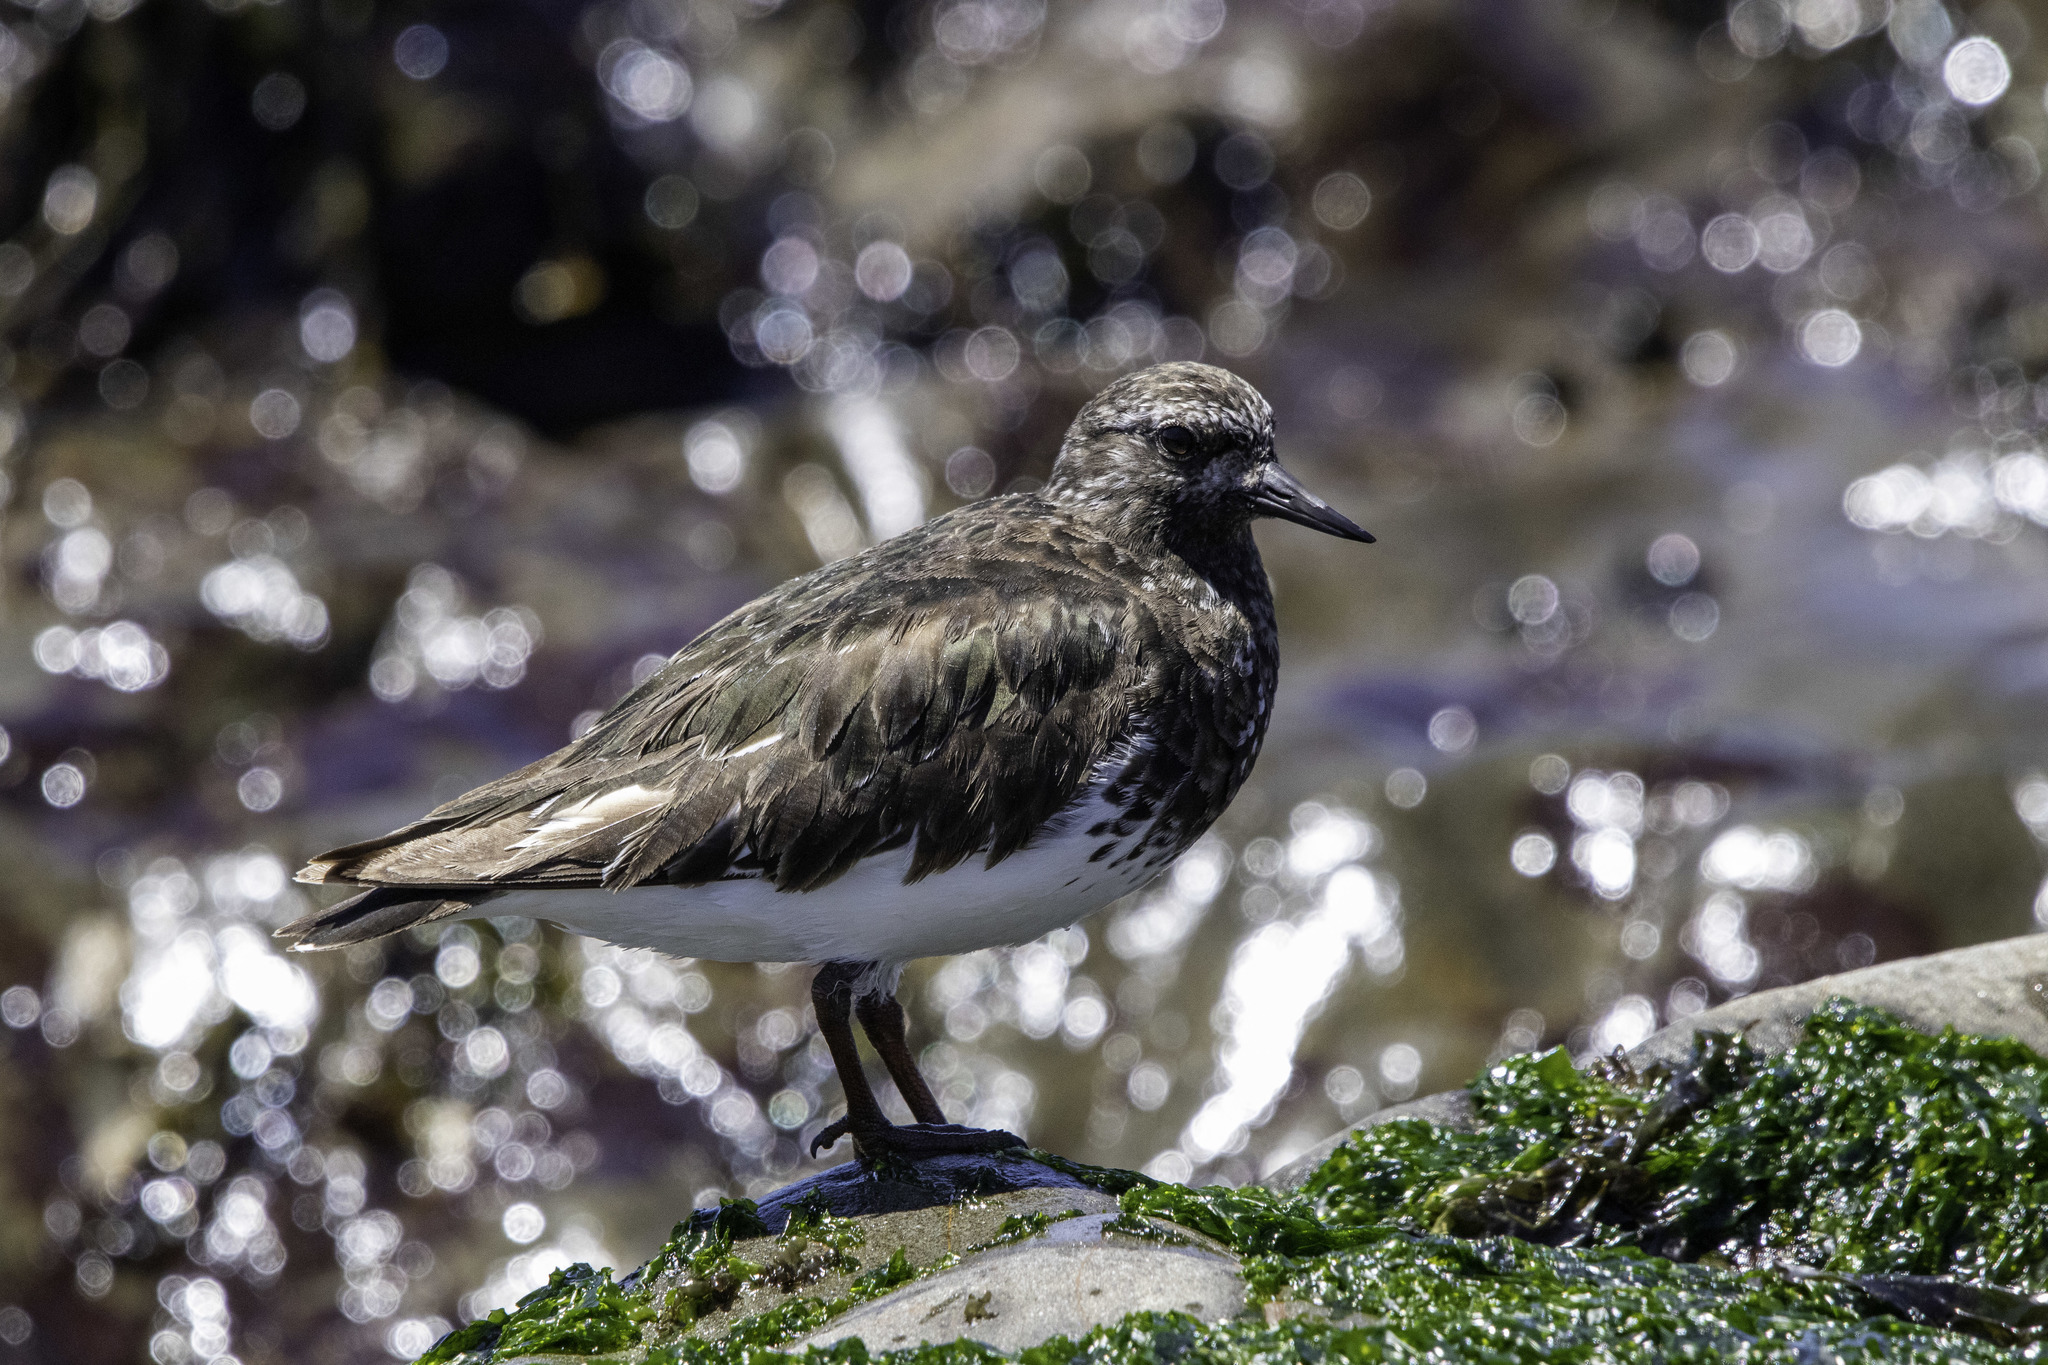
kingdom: Animalia
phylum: Chordata
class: Aves
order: Charadriiformes
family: Scolopacidae
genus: Arenaria
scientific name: Arenaria melanocephala
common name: Black turnstone
